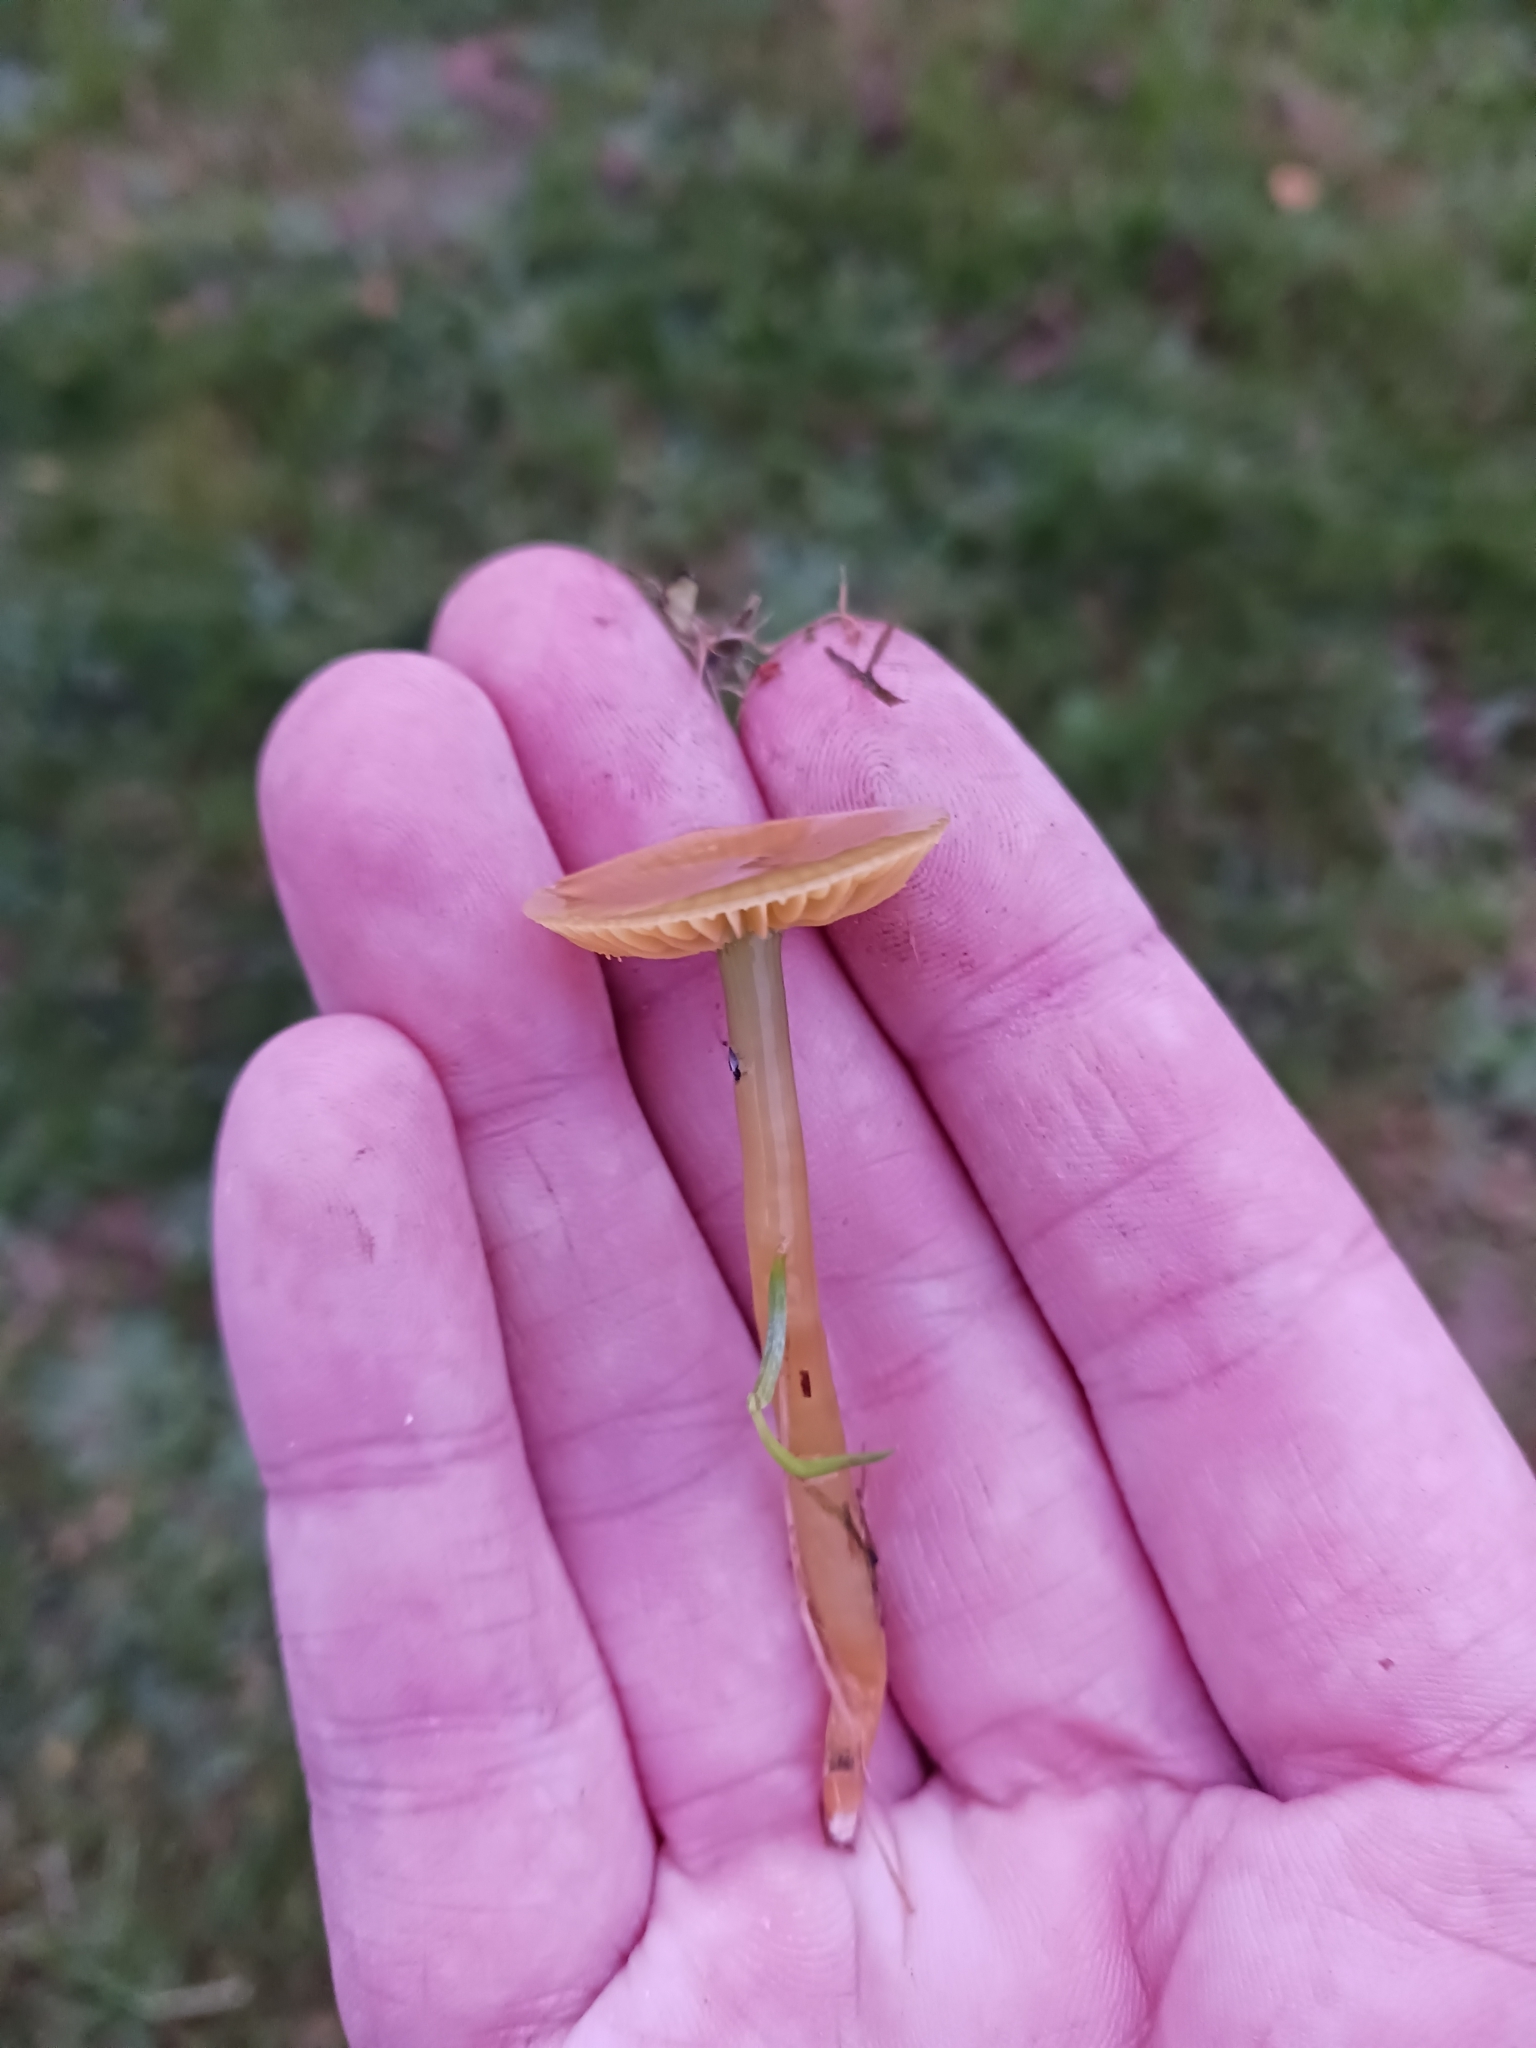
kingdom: Fungi
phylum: Basidiomycota
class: Agaricomycetes
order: Agaricales
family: Hygrophoraceae
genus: Gliophorus
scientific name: Gliophorus psittacinus
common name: Parrot wax-cap
